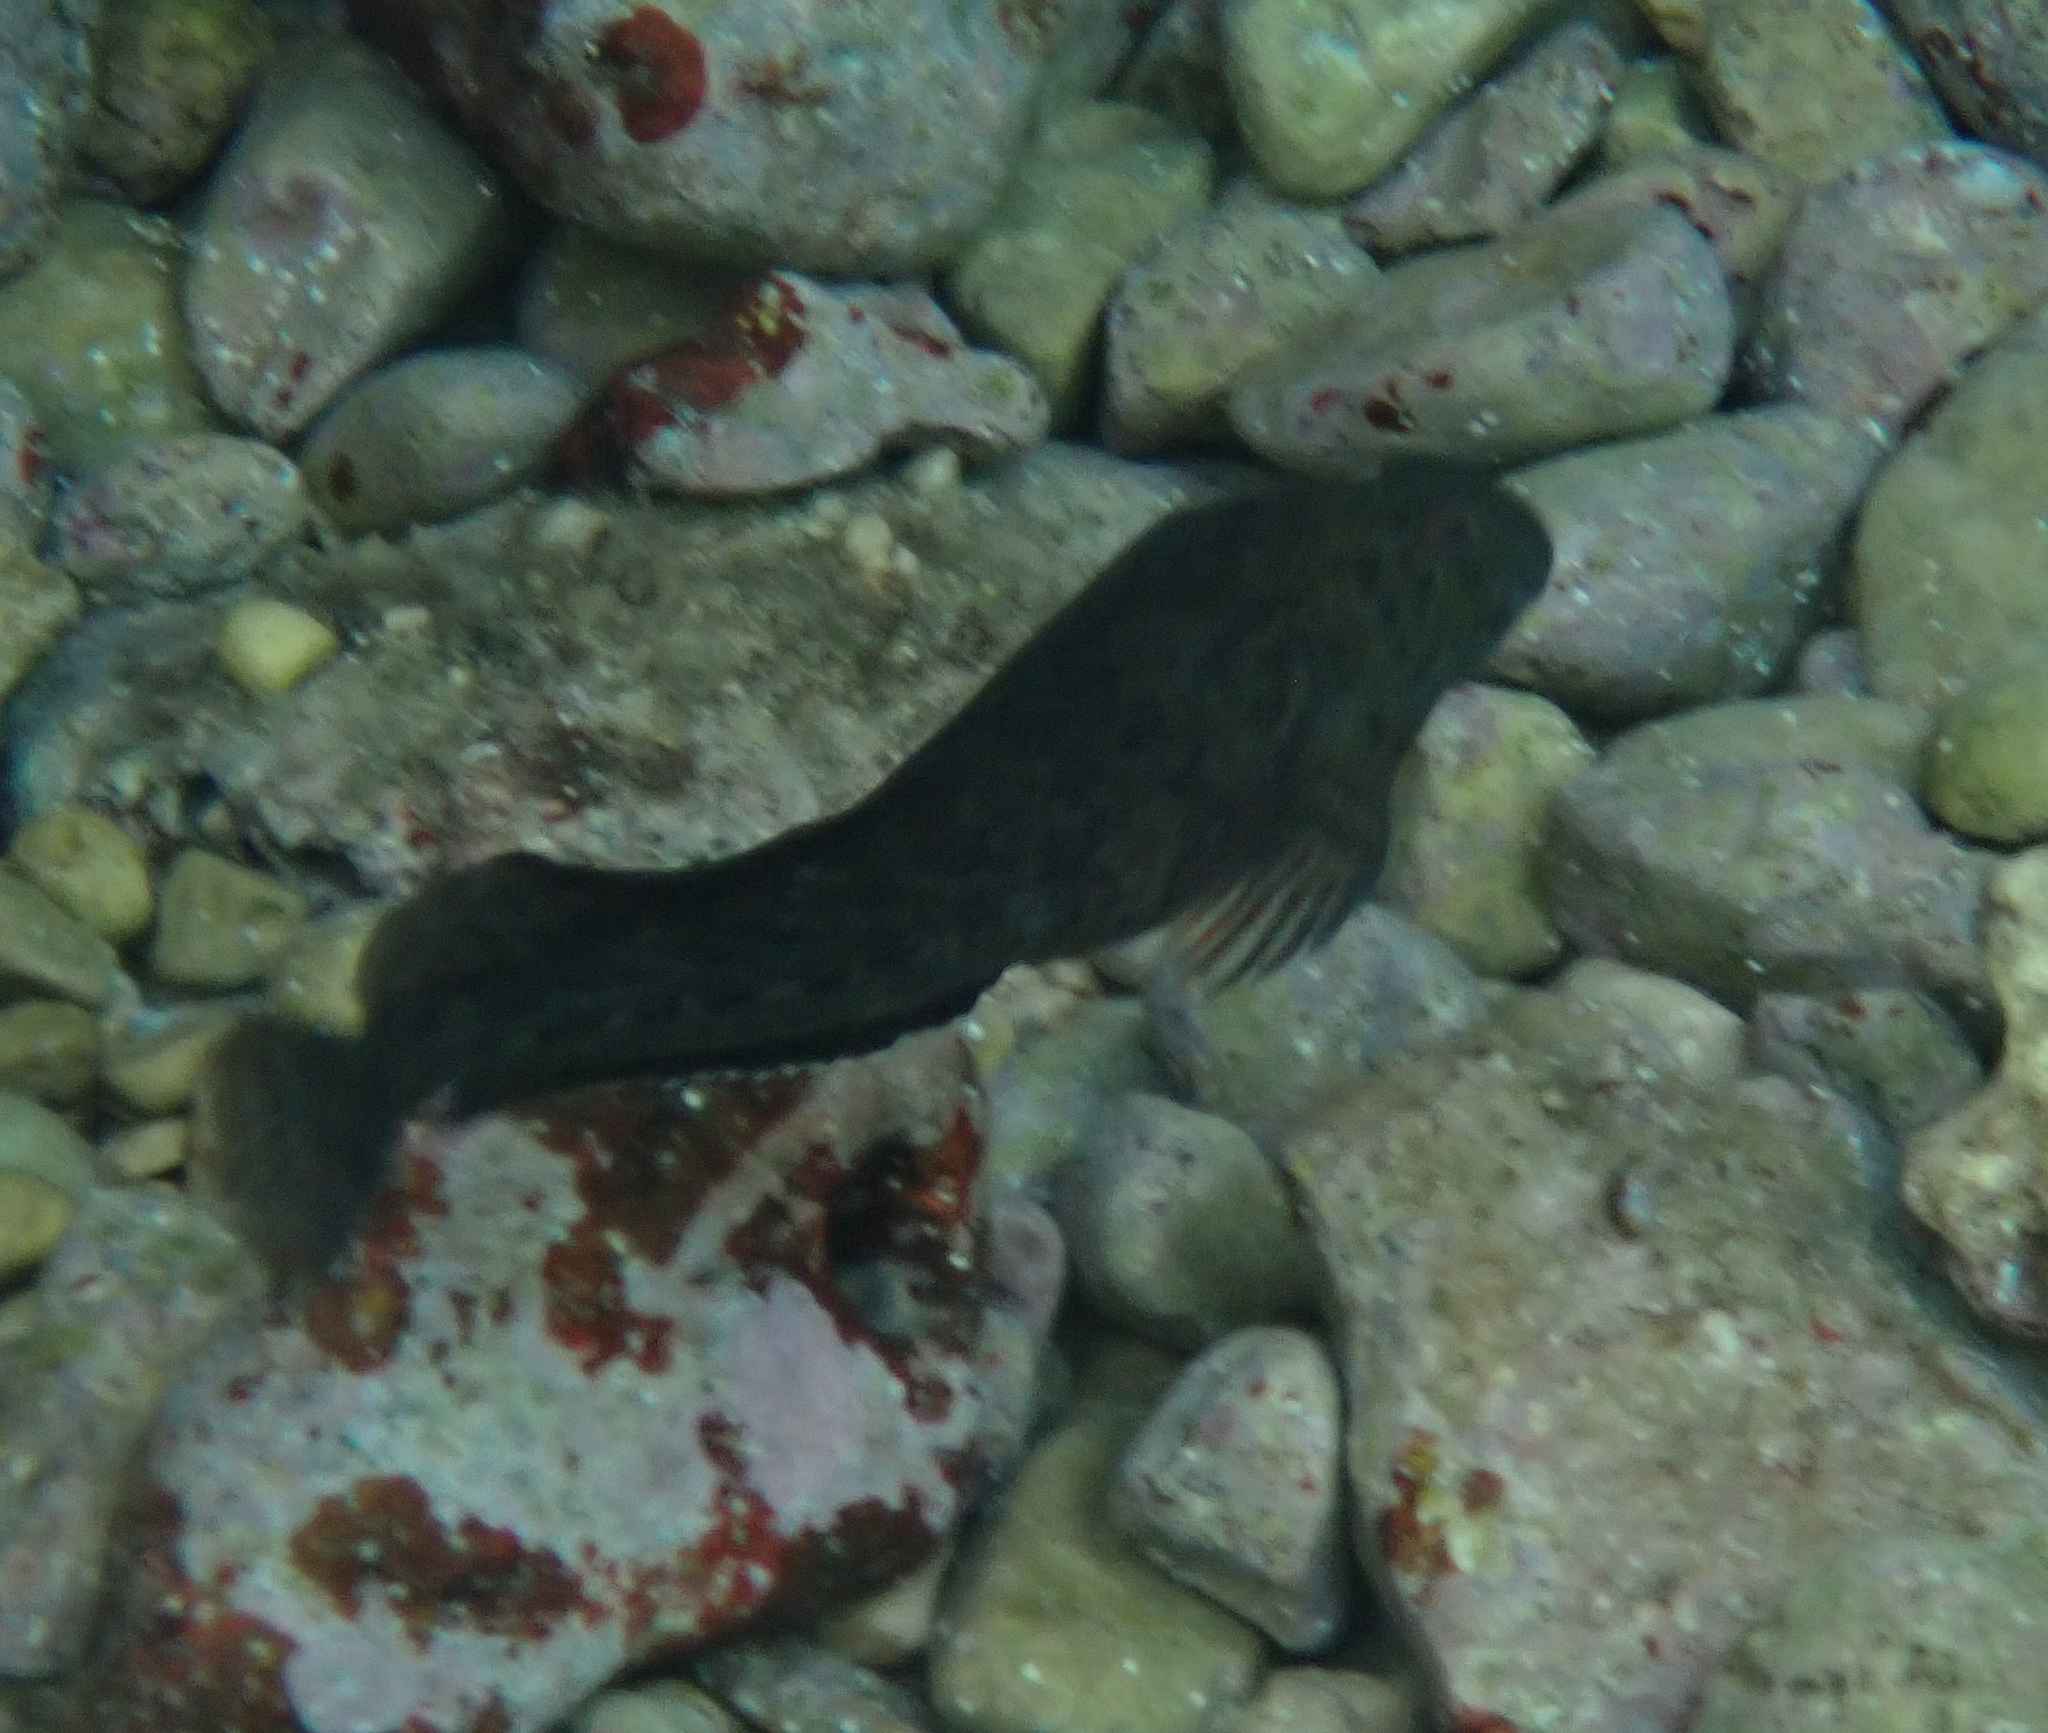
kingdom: Animalia
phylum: Chordata
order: Perciformes
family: Blenniidae
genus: Parablennius
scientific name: Parablennius sanguinolentus
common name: Black sea blenny
